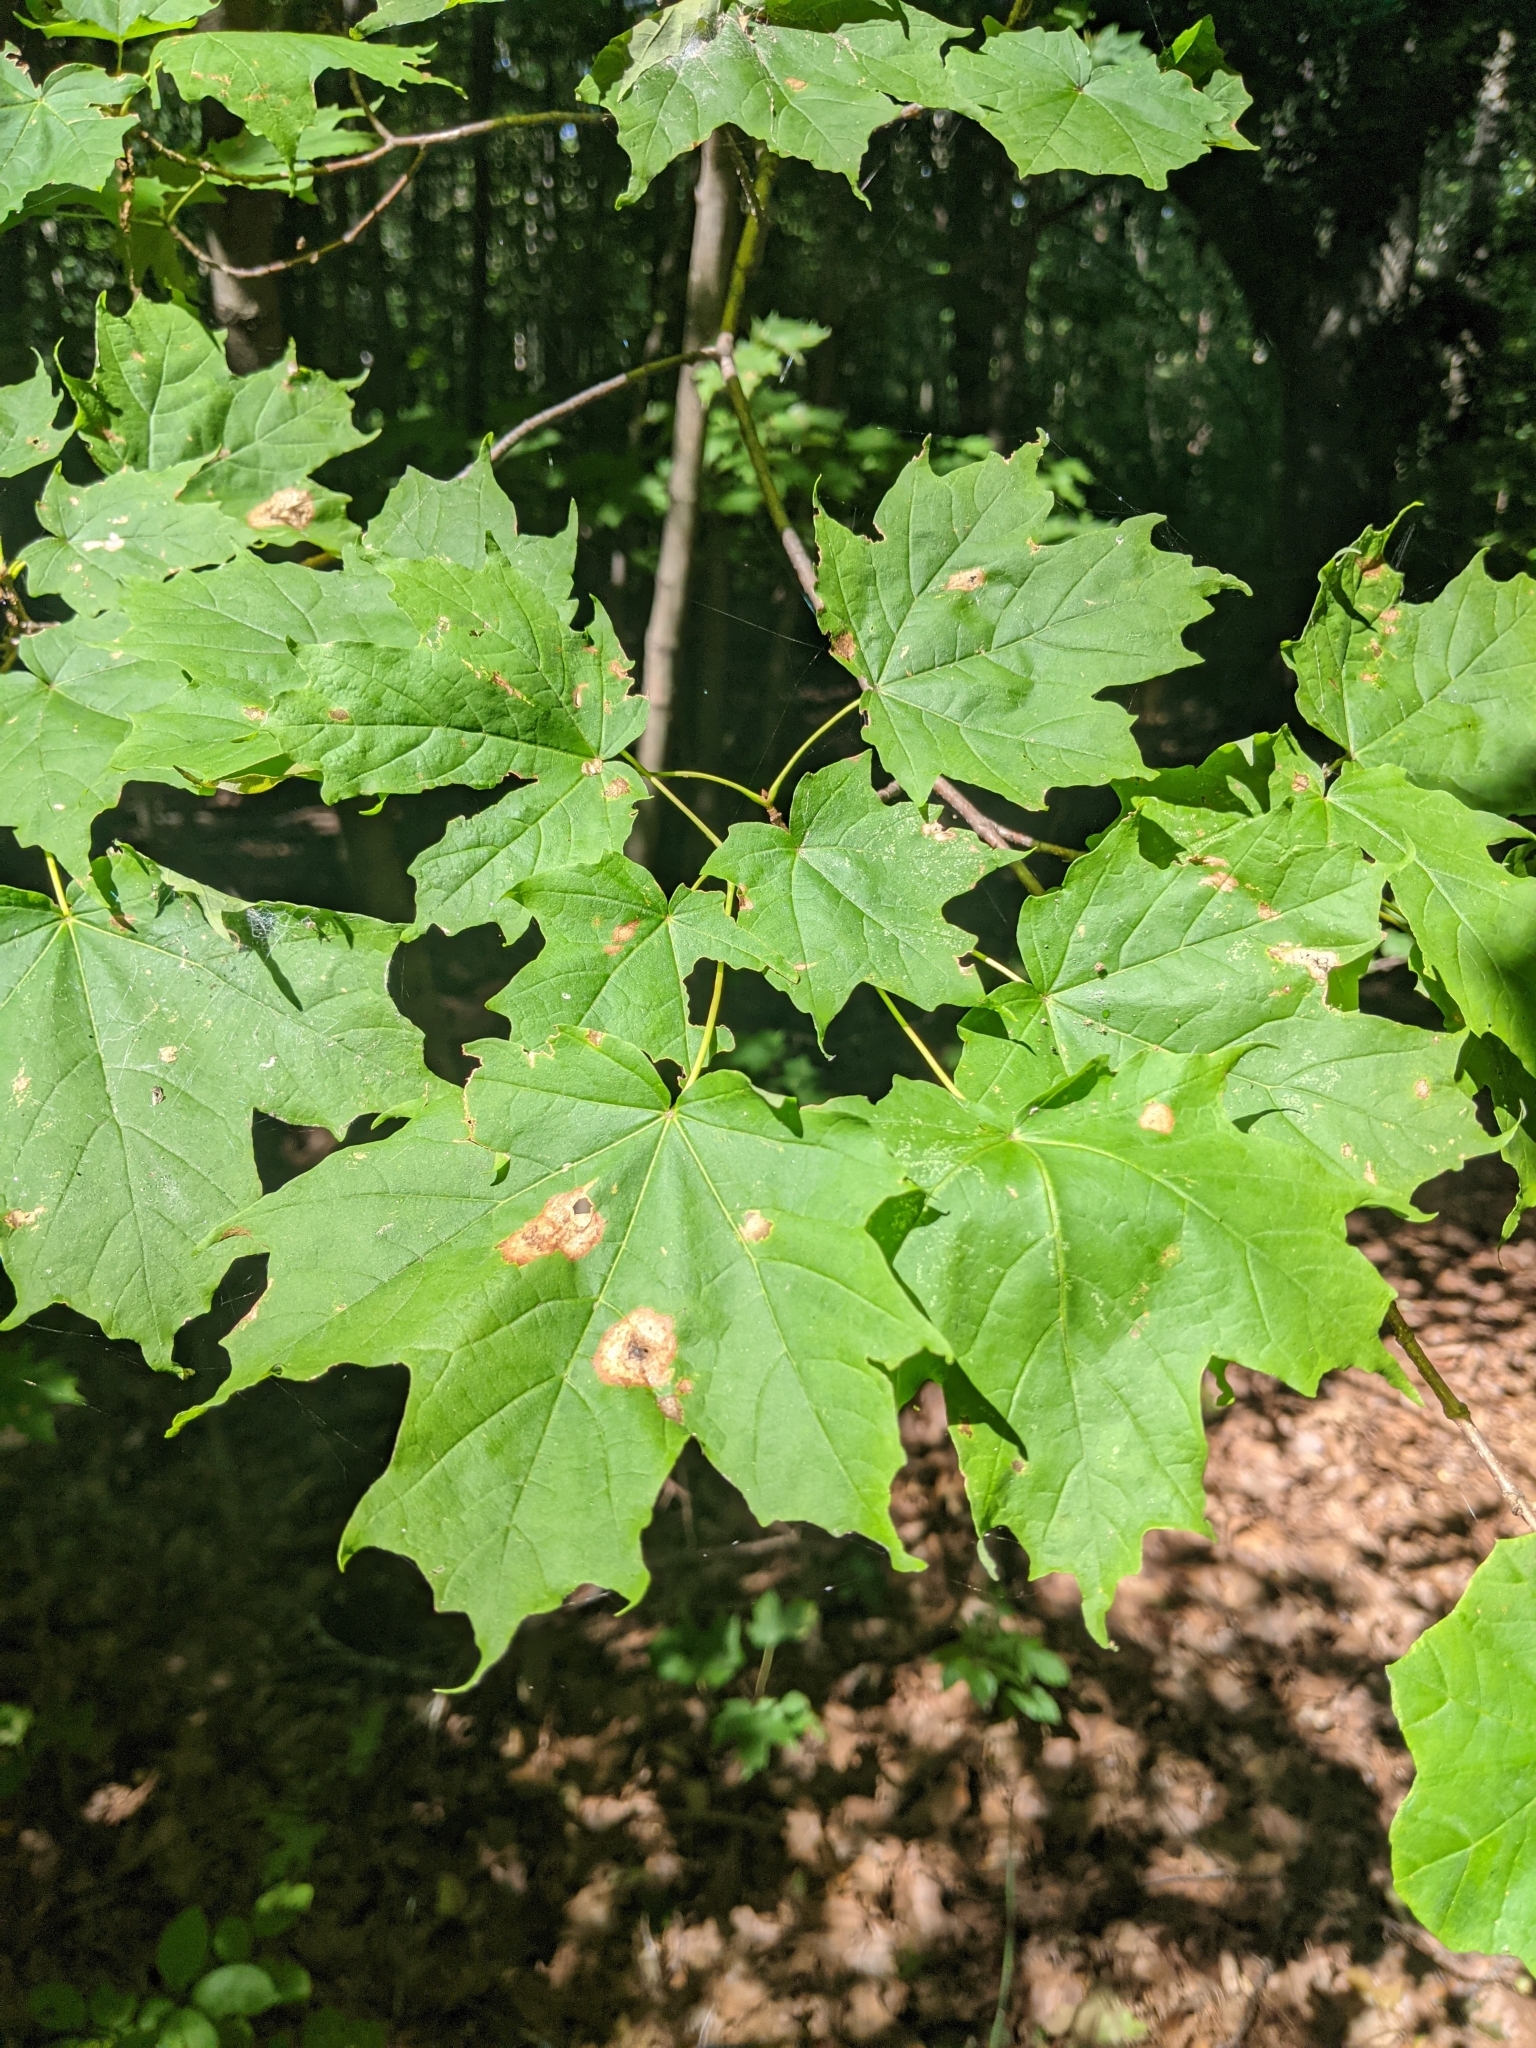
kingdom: Plantae
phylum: Tracheophyta
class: Magnoliopsida
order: Sapindales
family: Sapindaceae
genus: Acer
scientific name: Acer saccharum
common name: Sugar maple
